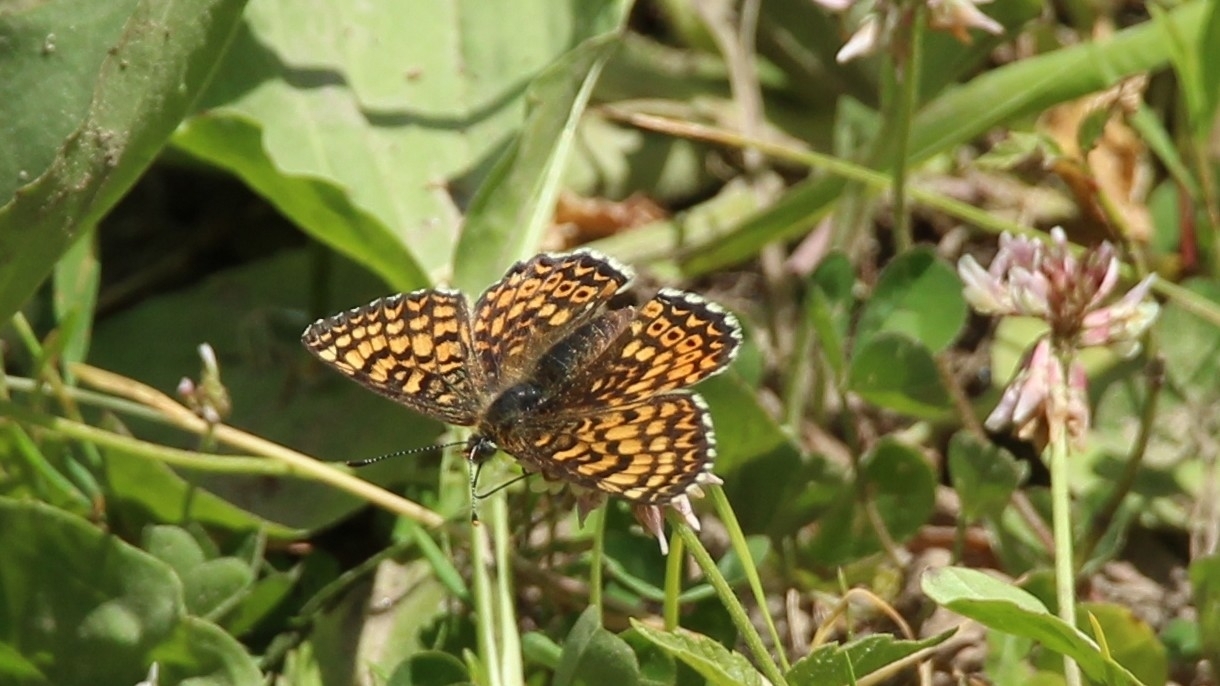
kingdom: Animalia
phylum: Arthropoda
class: Insecta
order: Lepidoptera
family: Nymphalidae
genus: Melitaea
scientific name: Melitaea cinxia
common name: Glanville fritillary
